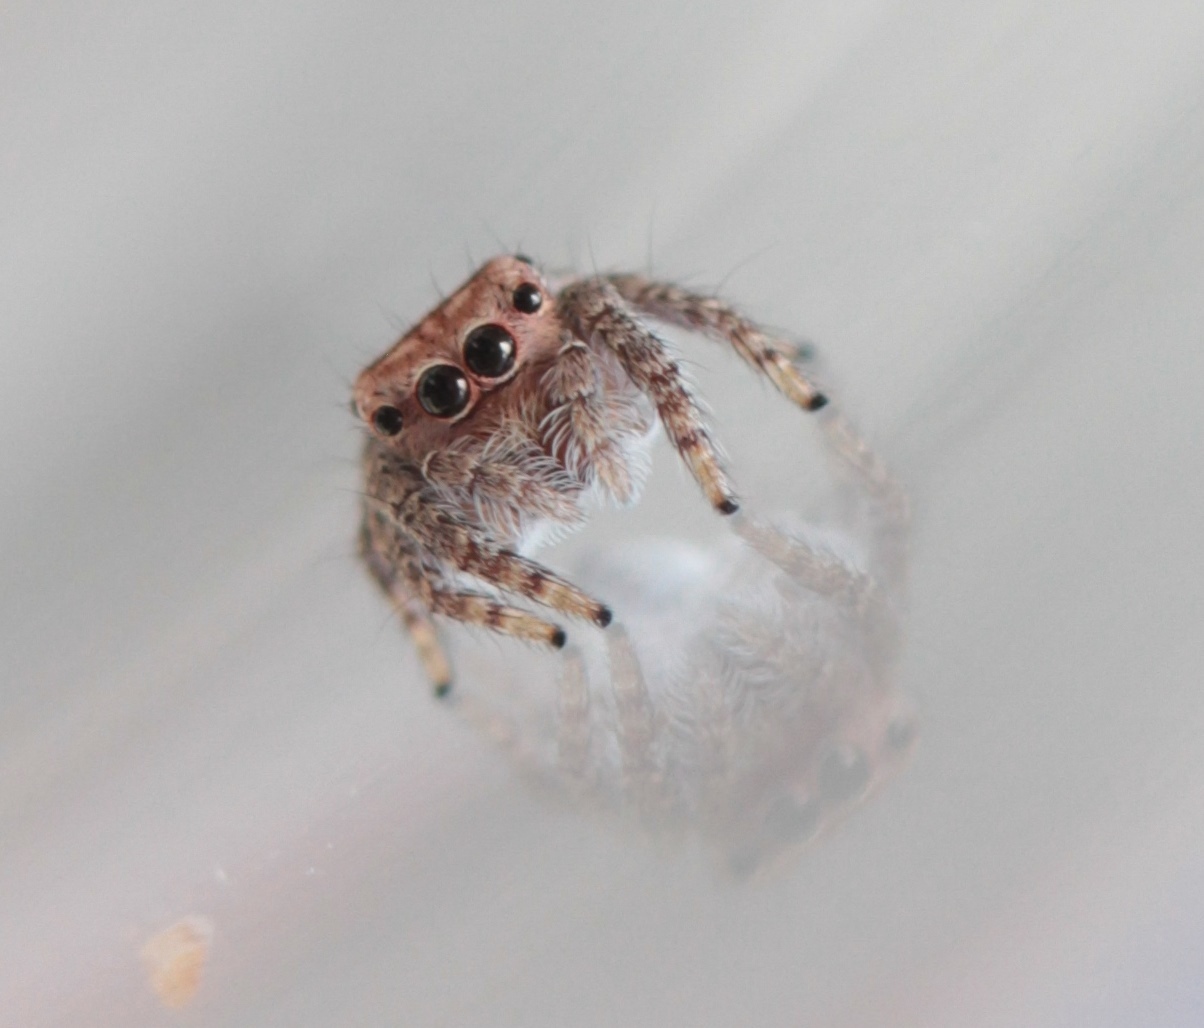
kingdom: Animalia
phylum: Arthropoda
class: Arachnida
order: Araneae
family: Salticidae
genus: Bythocrotus
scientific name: Bythocrotus crypticus
